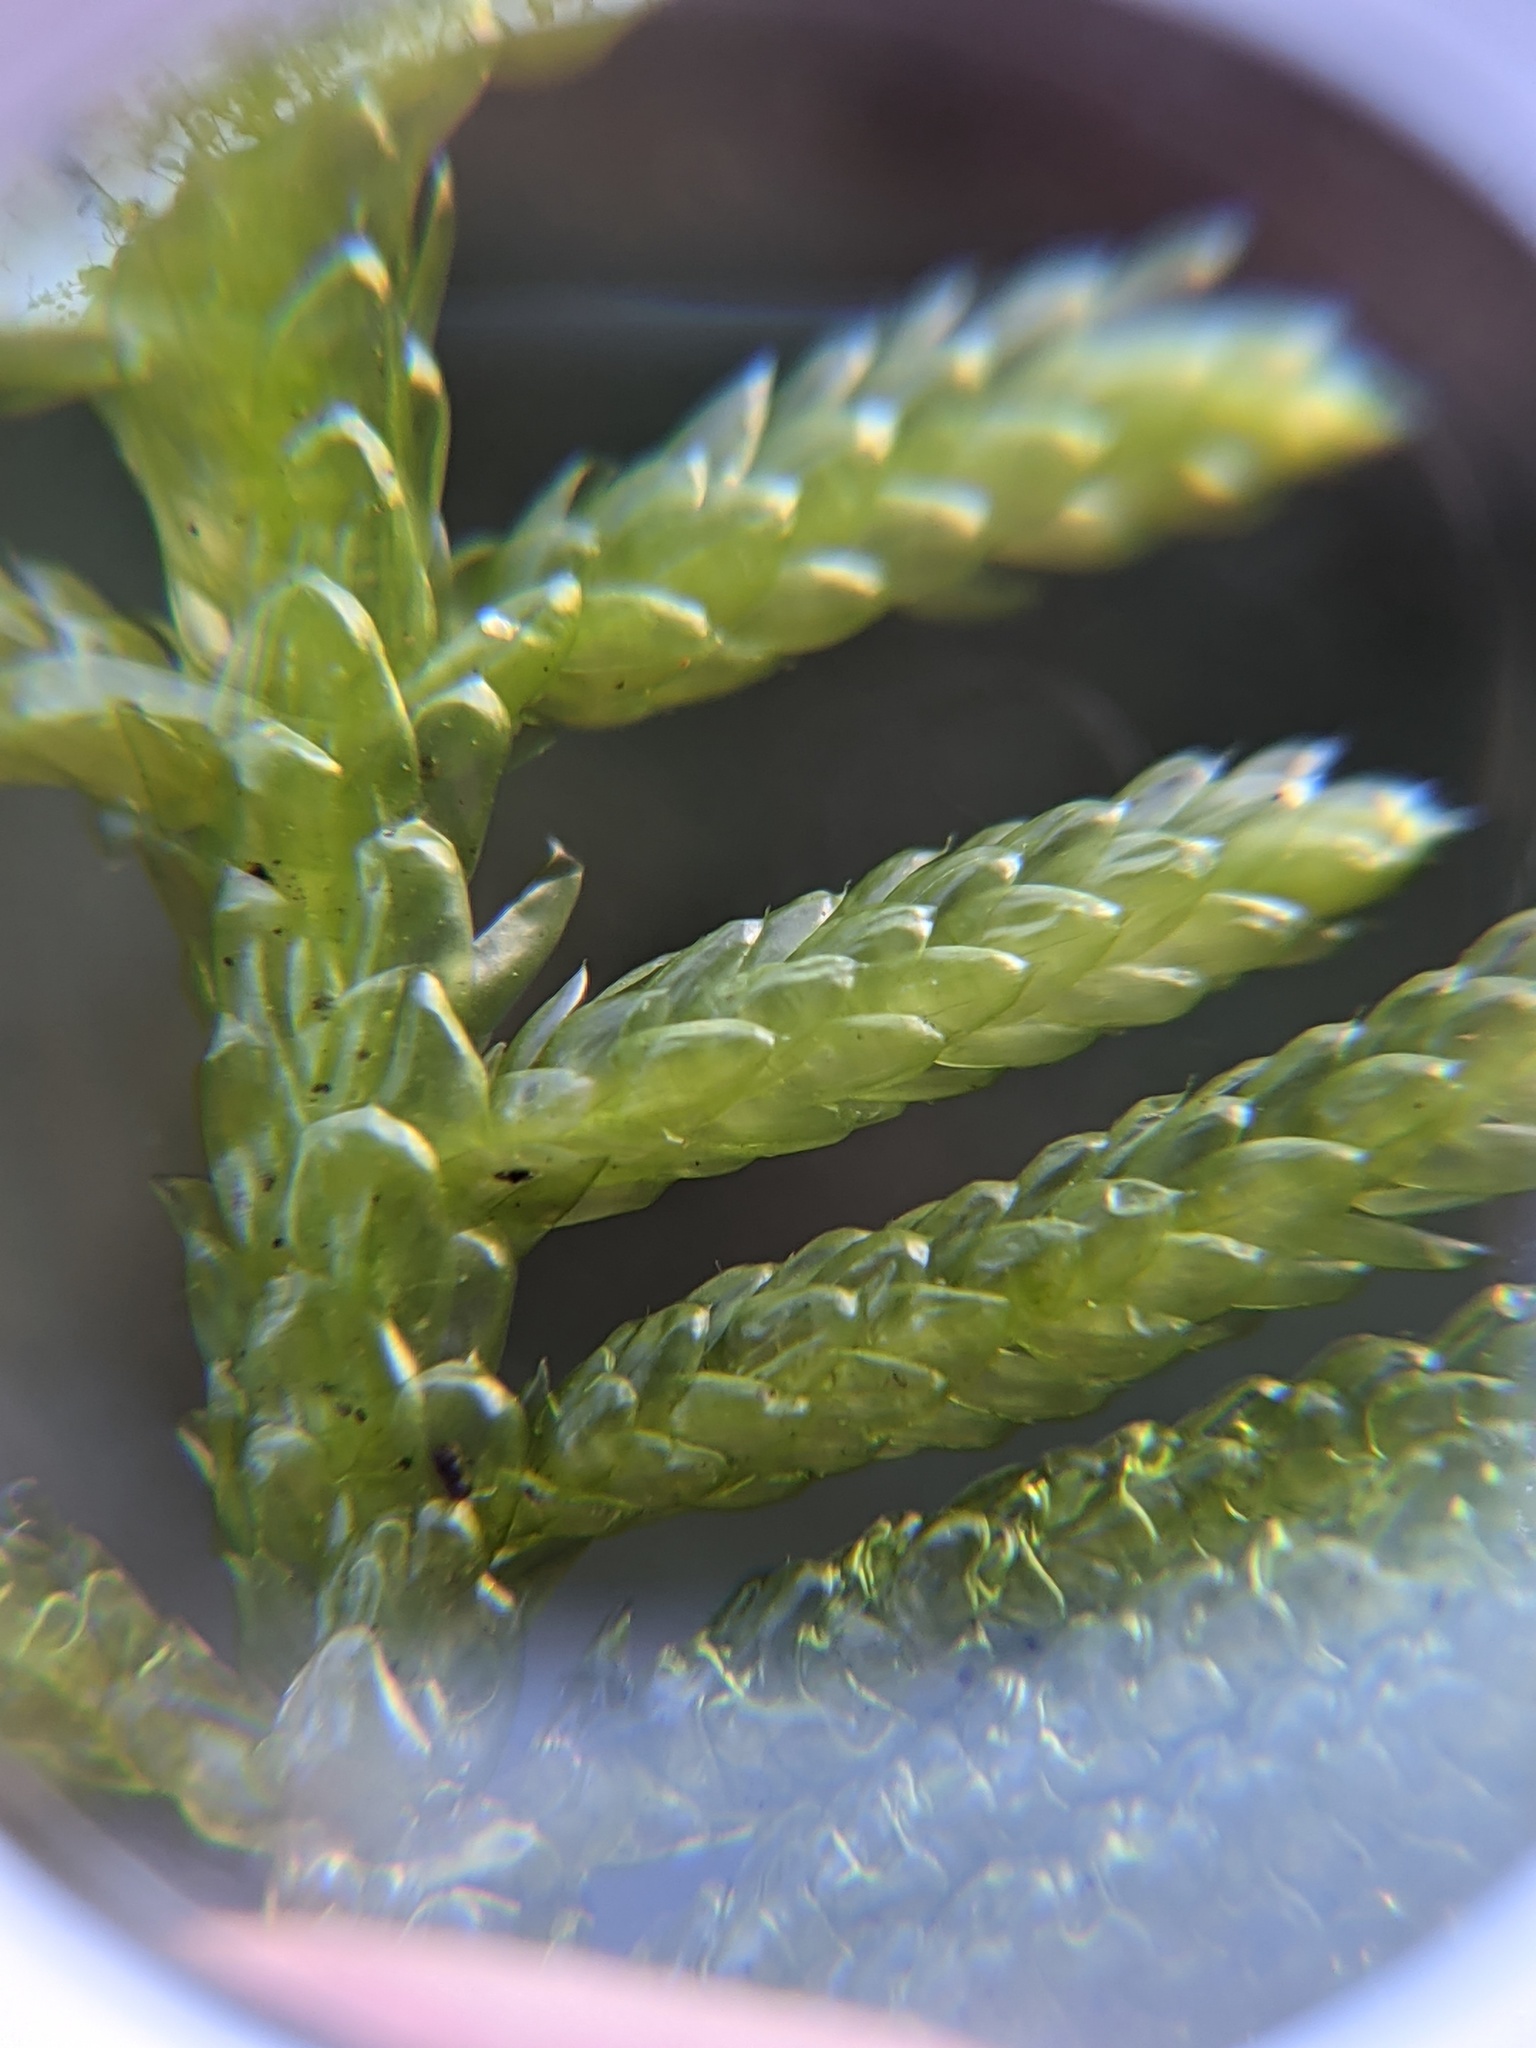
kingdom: Plantae
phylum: Bryophyta
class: Bryopsida
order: Hypnales
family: Brachytheciaceae
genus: Pseudoscleropodium
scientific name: Pseudoscleropodium purum
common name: Neat feather-moss
